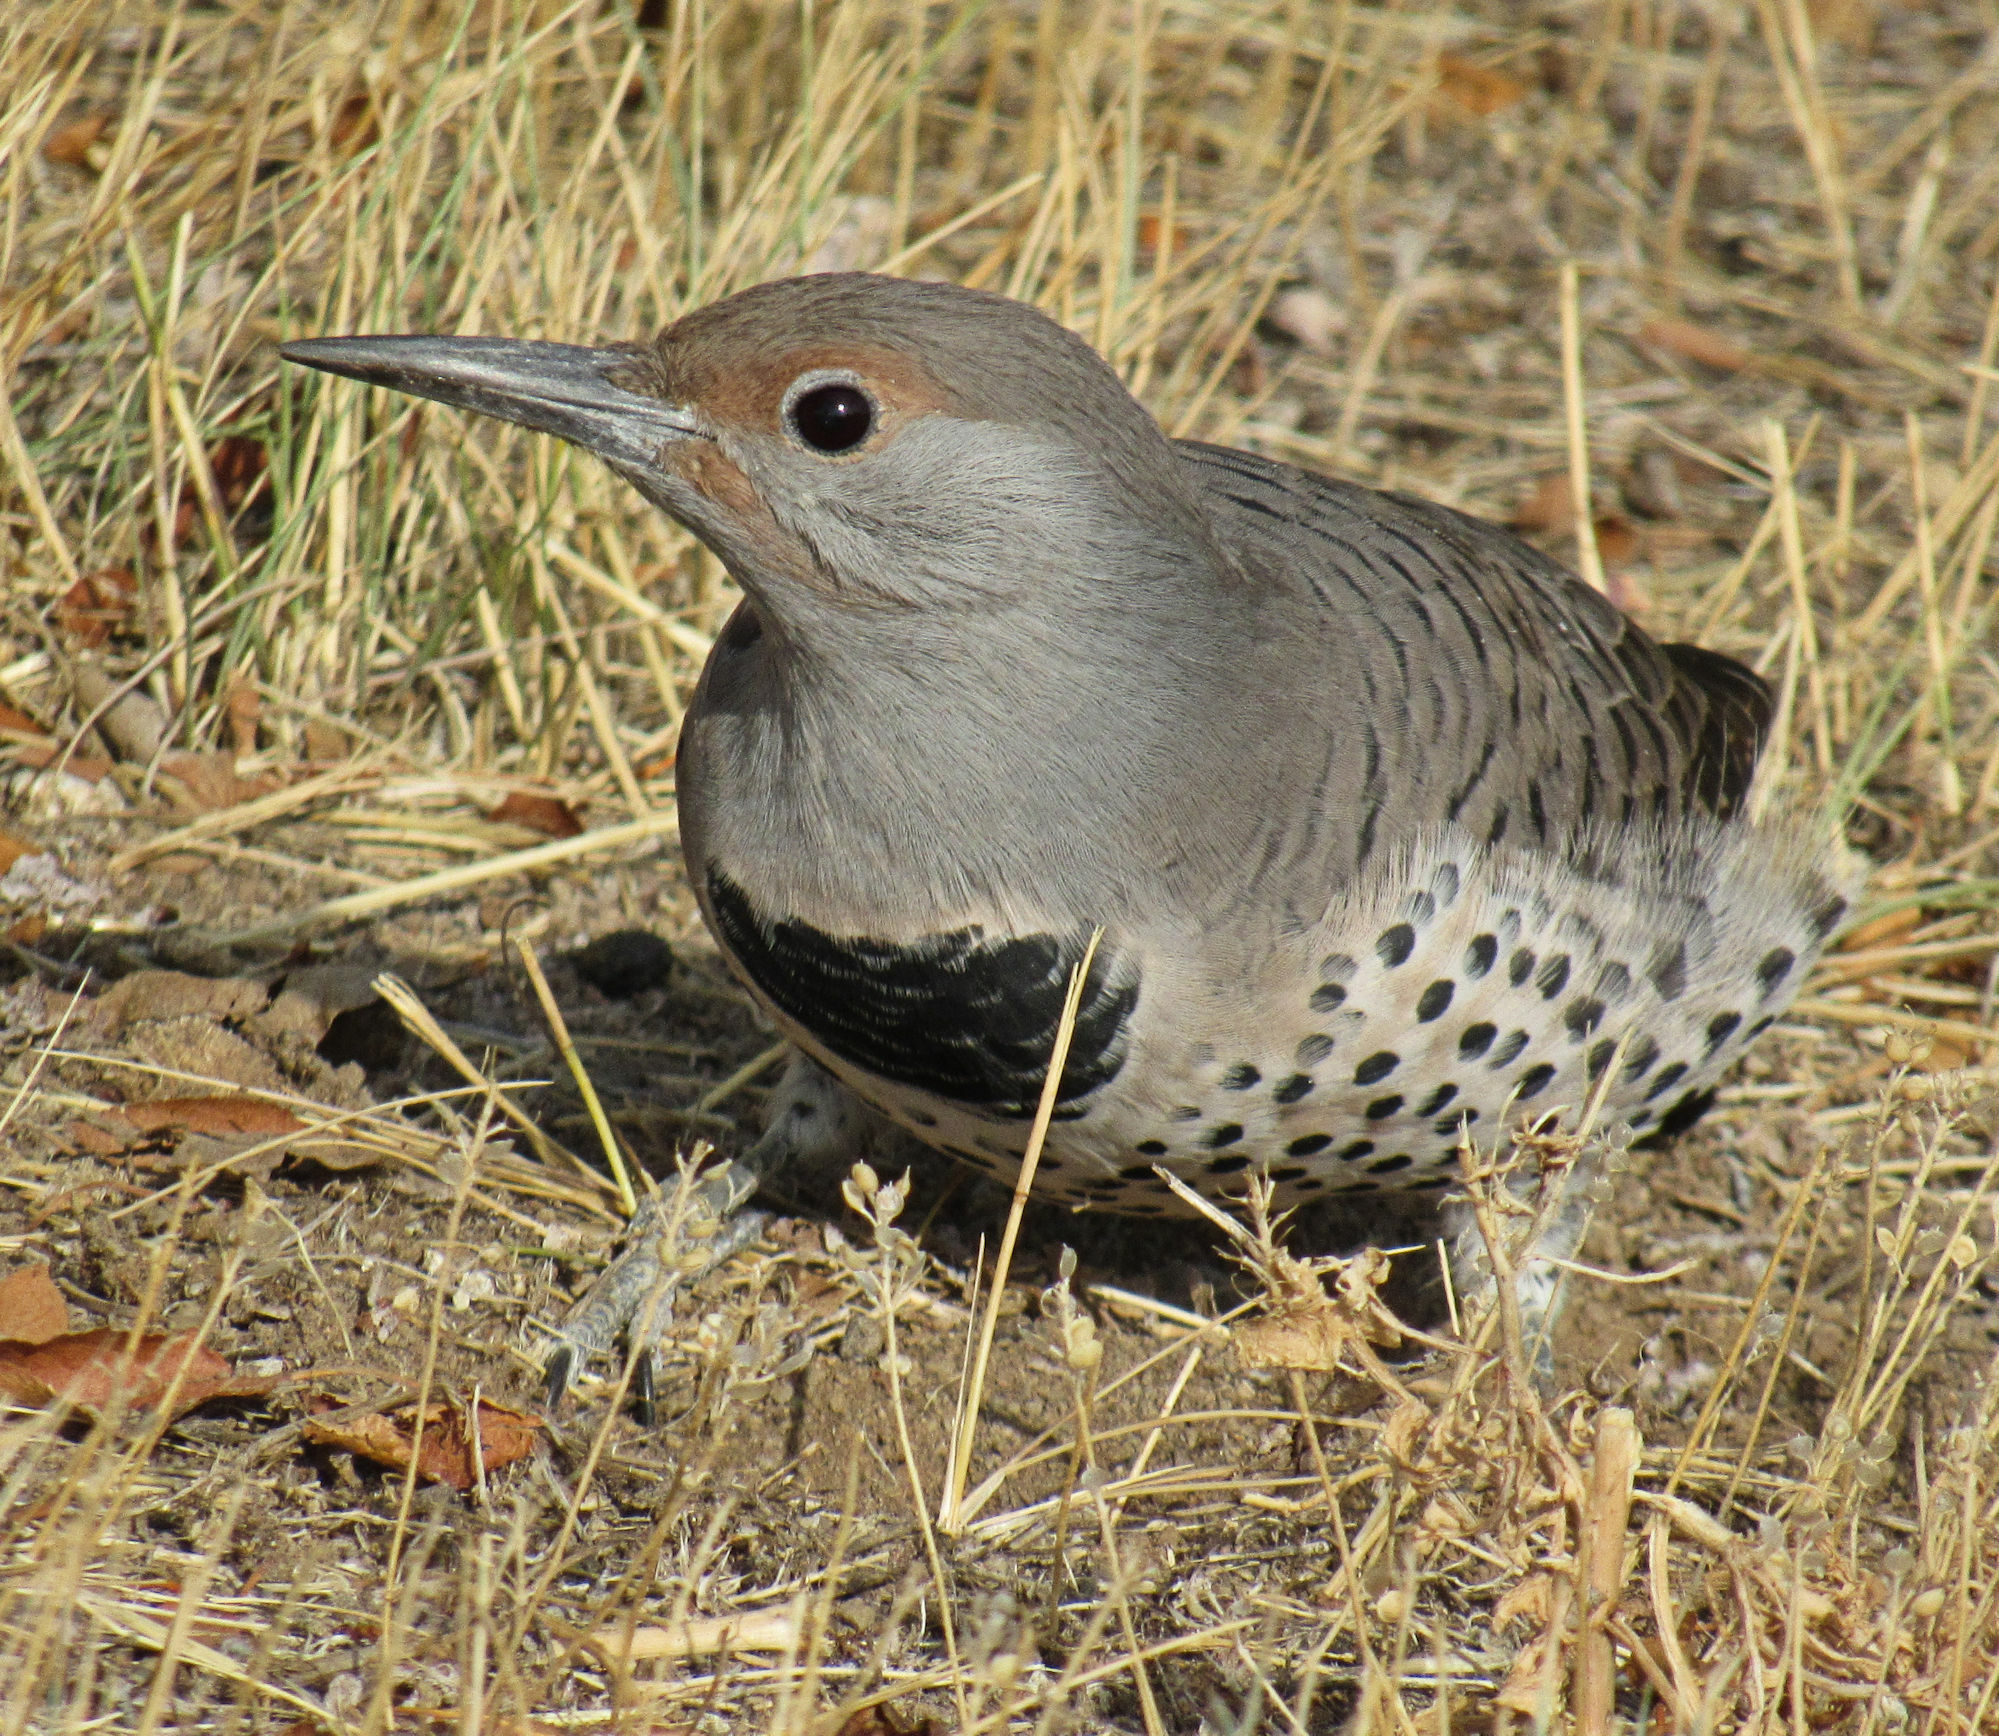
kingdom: Animalia
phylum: Chordata
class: Aves
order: Piciformes
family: Picidae
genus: Colaptes
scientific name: Colaptes auratus
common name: Northern flicker
